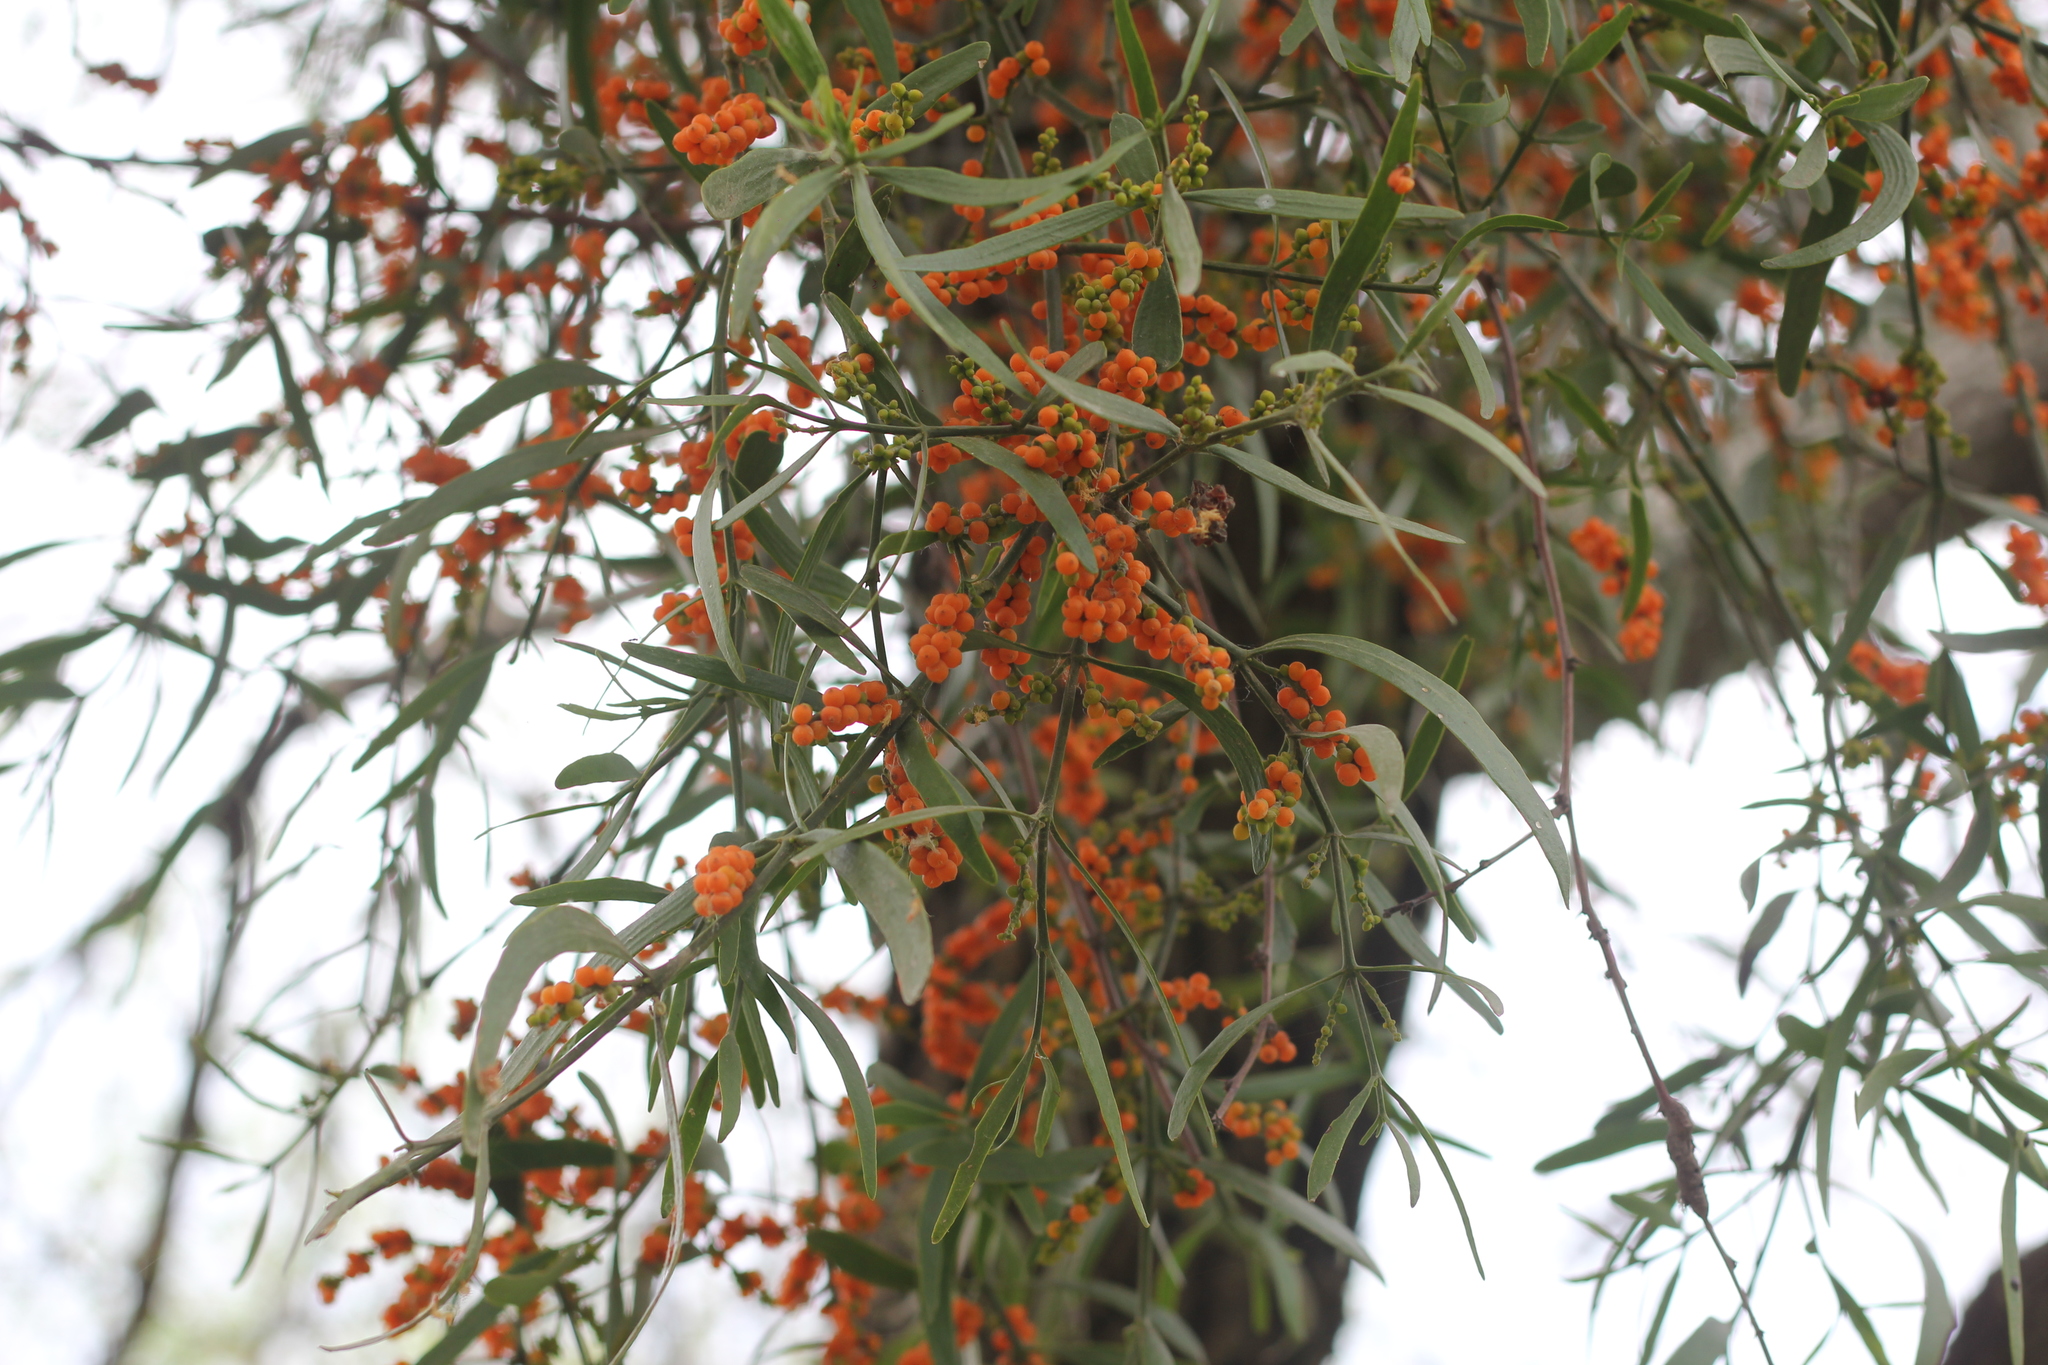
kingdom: Plantae
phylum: Tracheophyta
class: Magnoliopsida
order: Santalales
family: Viscaceae
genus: Phoradendron
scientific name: Phoradendron quadrangulare
